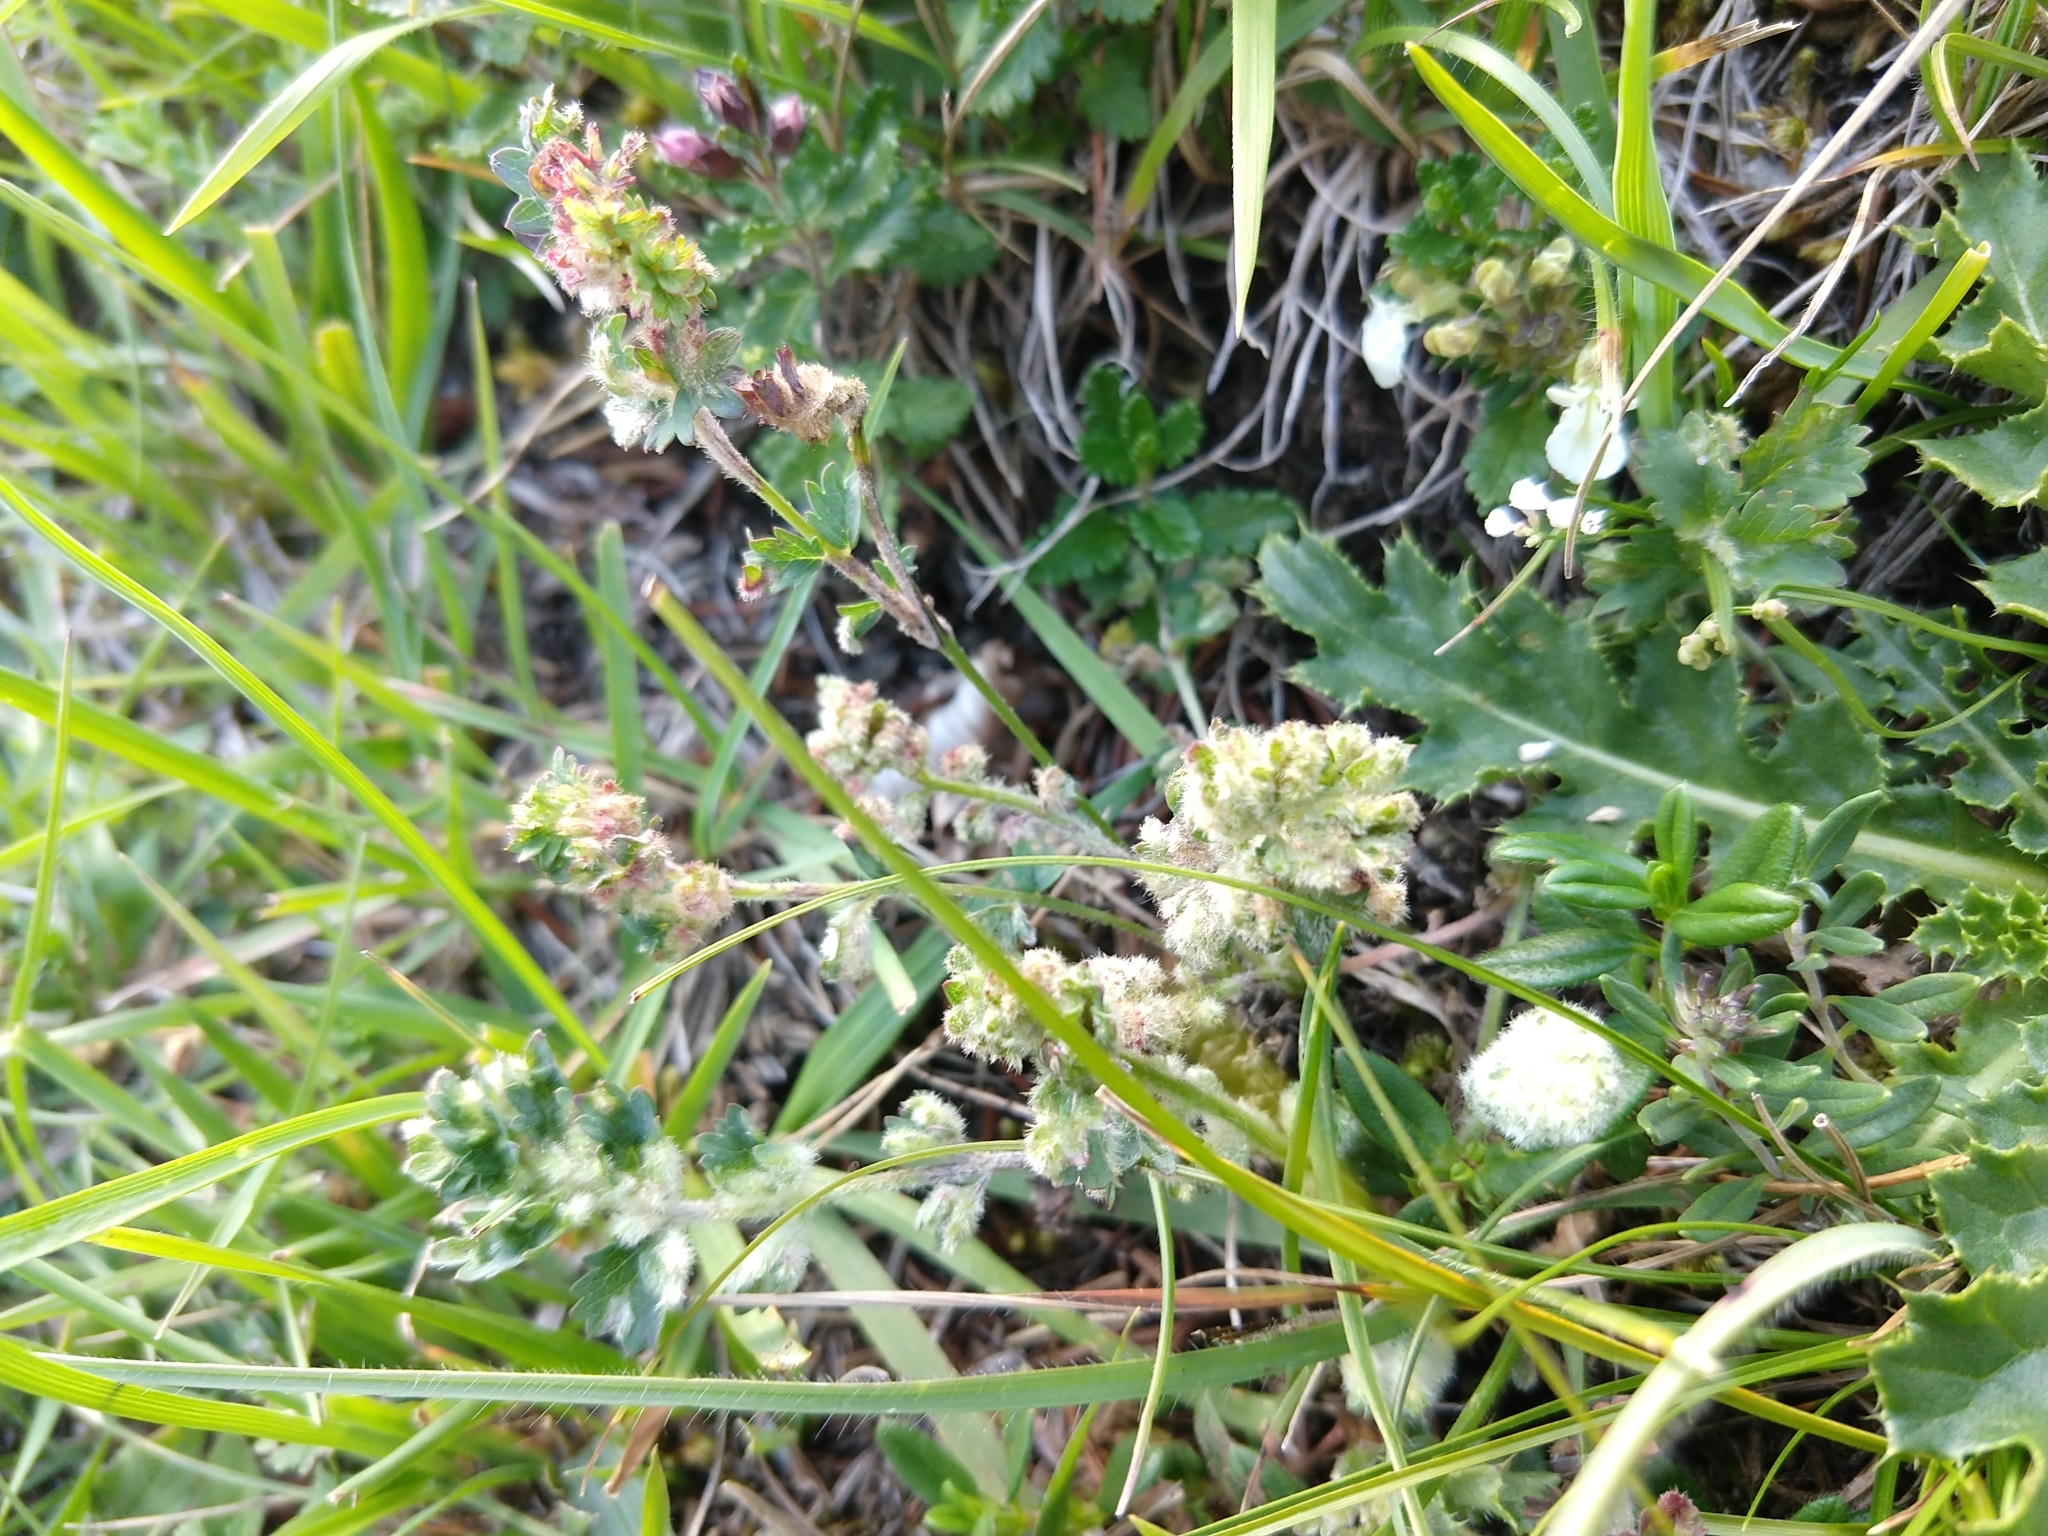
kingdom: Animalia
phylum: Arthropoda
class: Arachnida
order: Trombidiformes
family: Eriophyidae
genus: Aceria
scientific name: Aceria sanguisorbae
